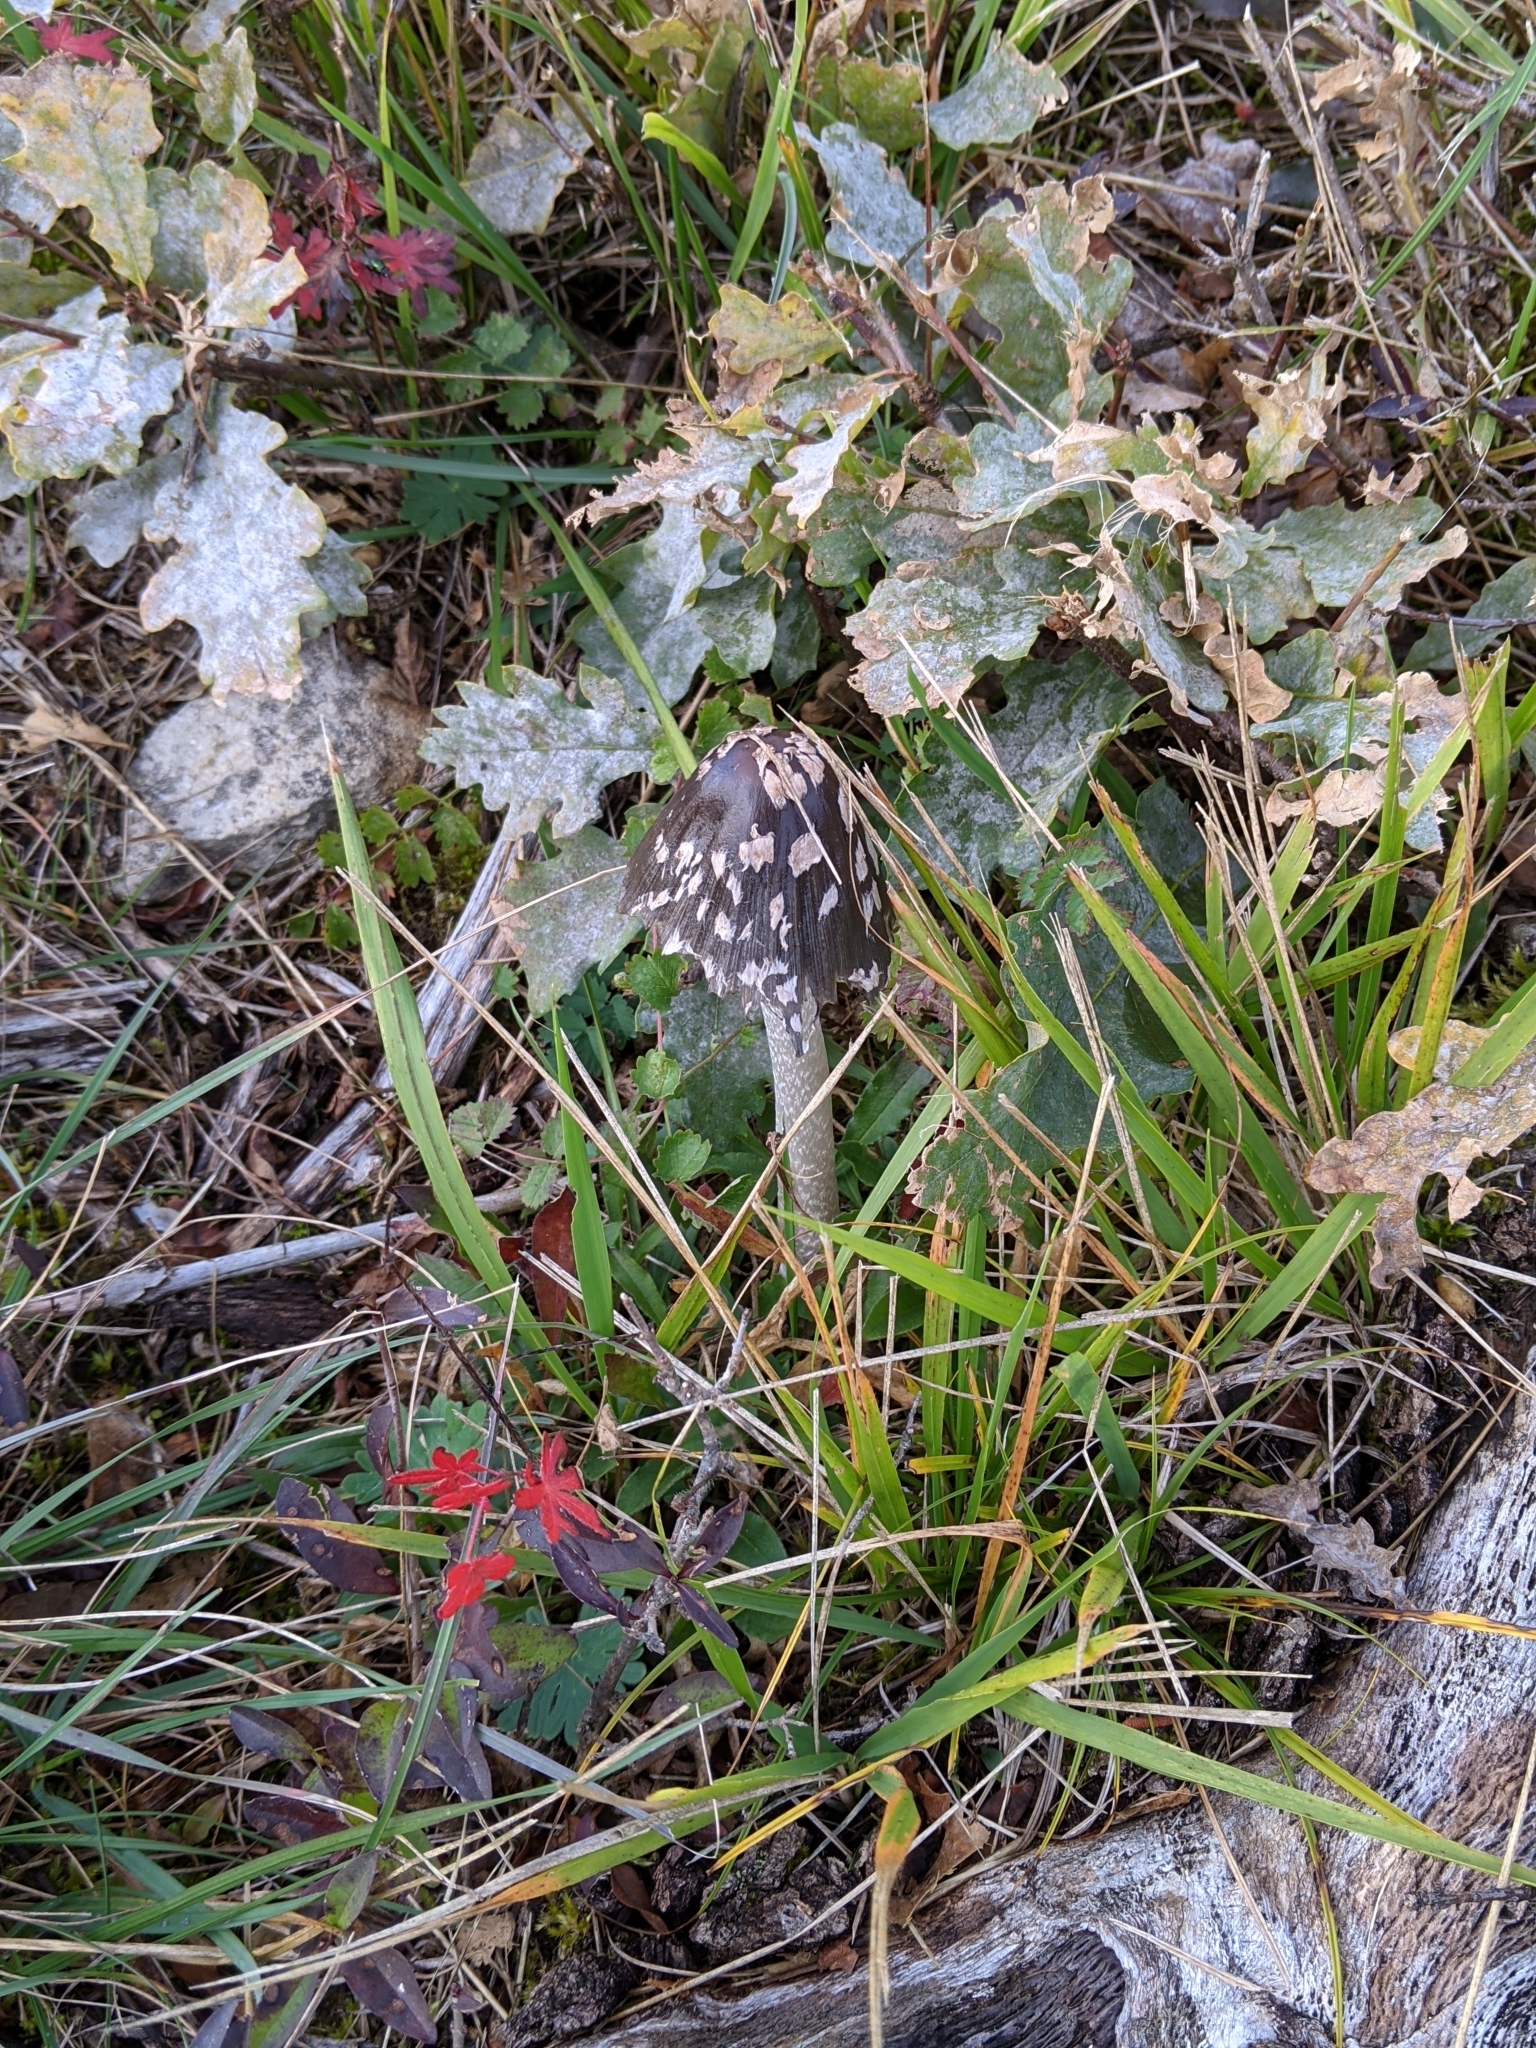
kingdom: Fungi
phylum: Basidiomycota
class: Agaricomycetes
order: Agaricales
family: Psathyrellaceae
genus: Coprinopsis
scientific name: Coprinopsis picacea
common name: Magpie inkcap
